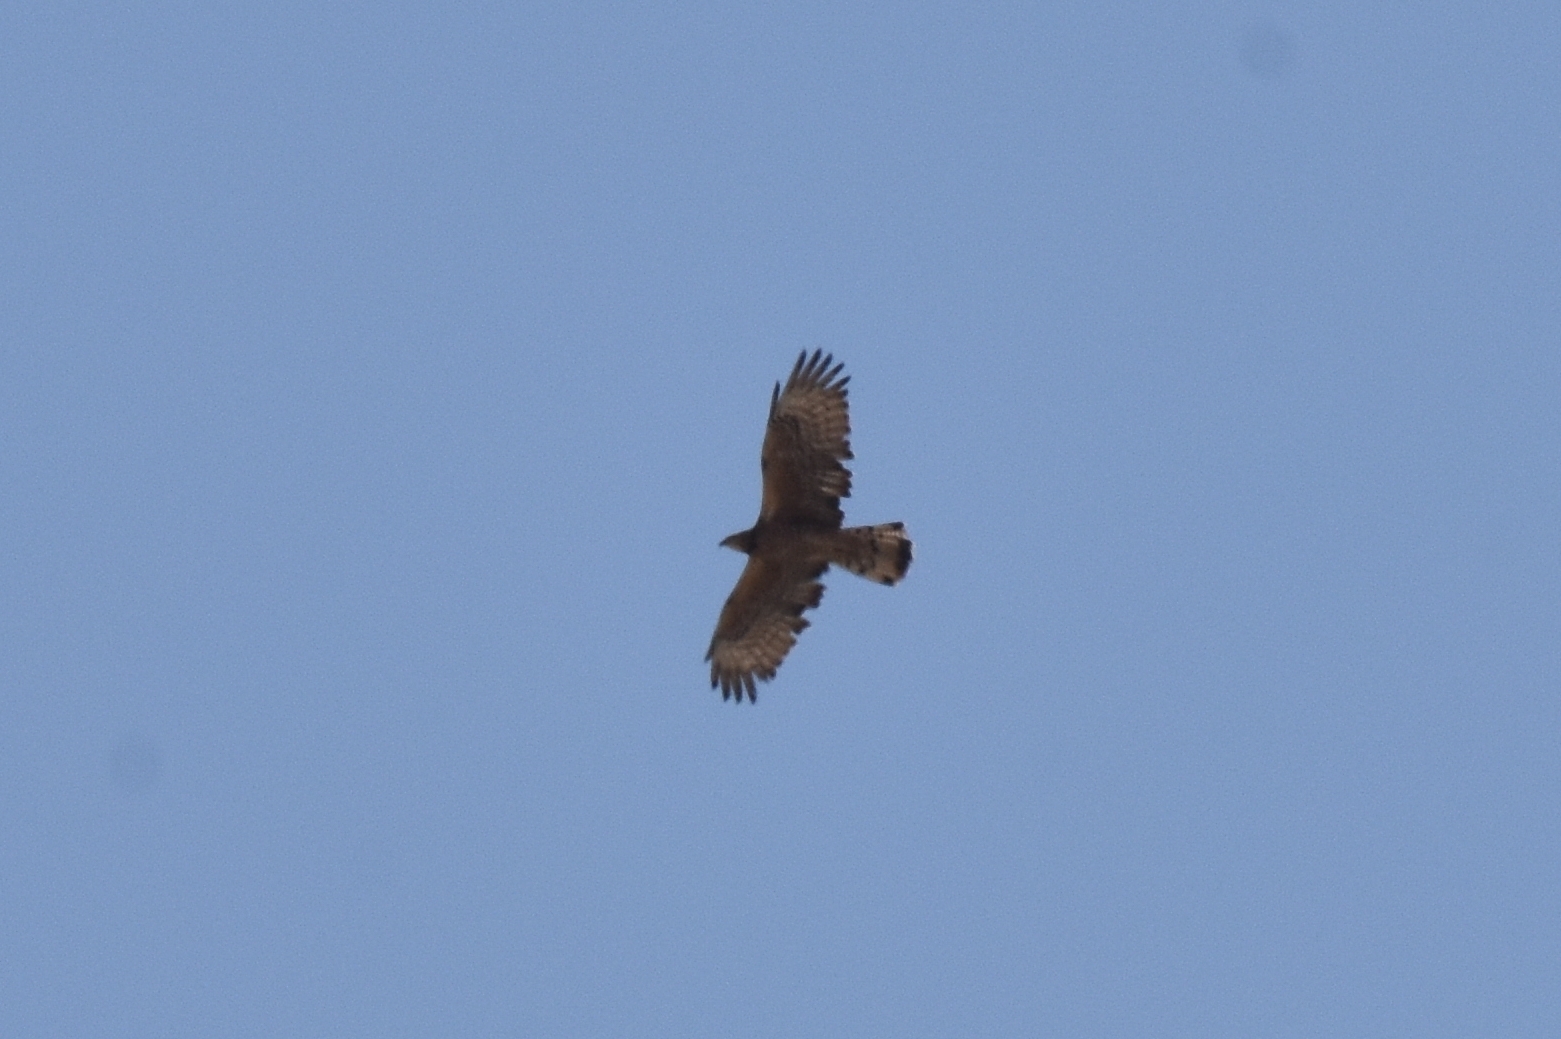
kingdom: Animalia
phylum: Chordata
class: Aves
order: Accipitriformes
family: Accipitridae
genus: Pernis
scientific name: Pernis ptilorhynchus
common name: Crested honey buzzard
